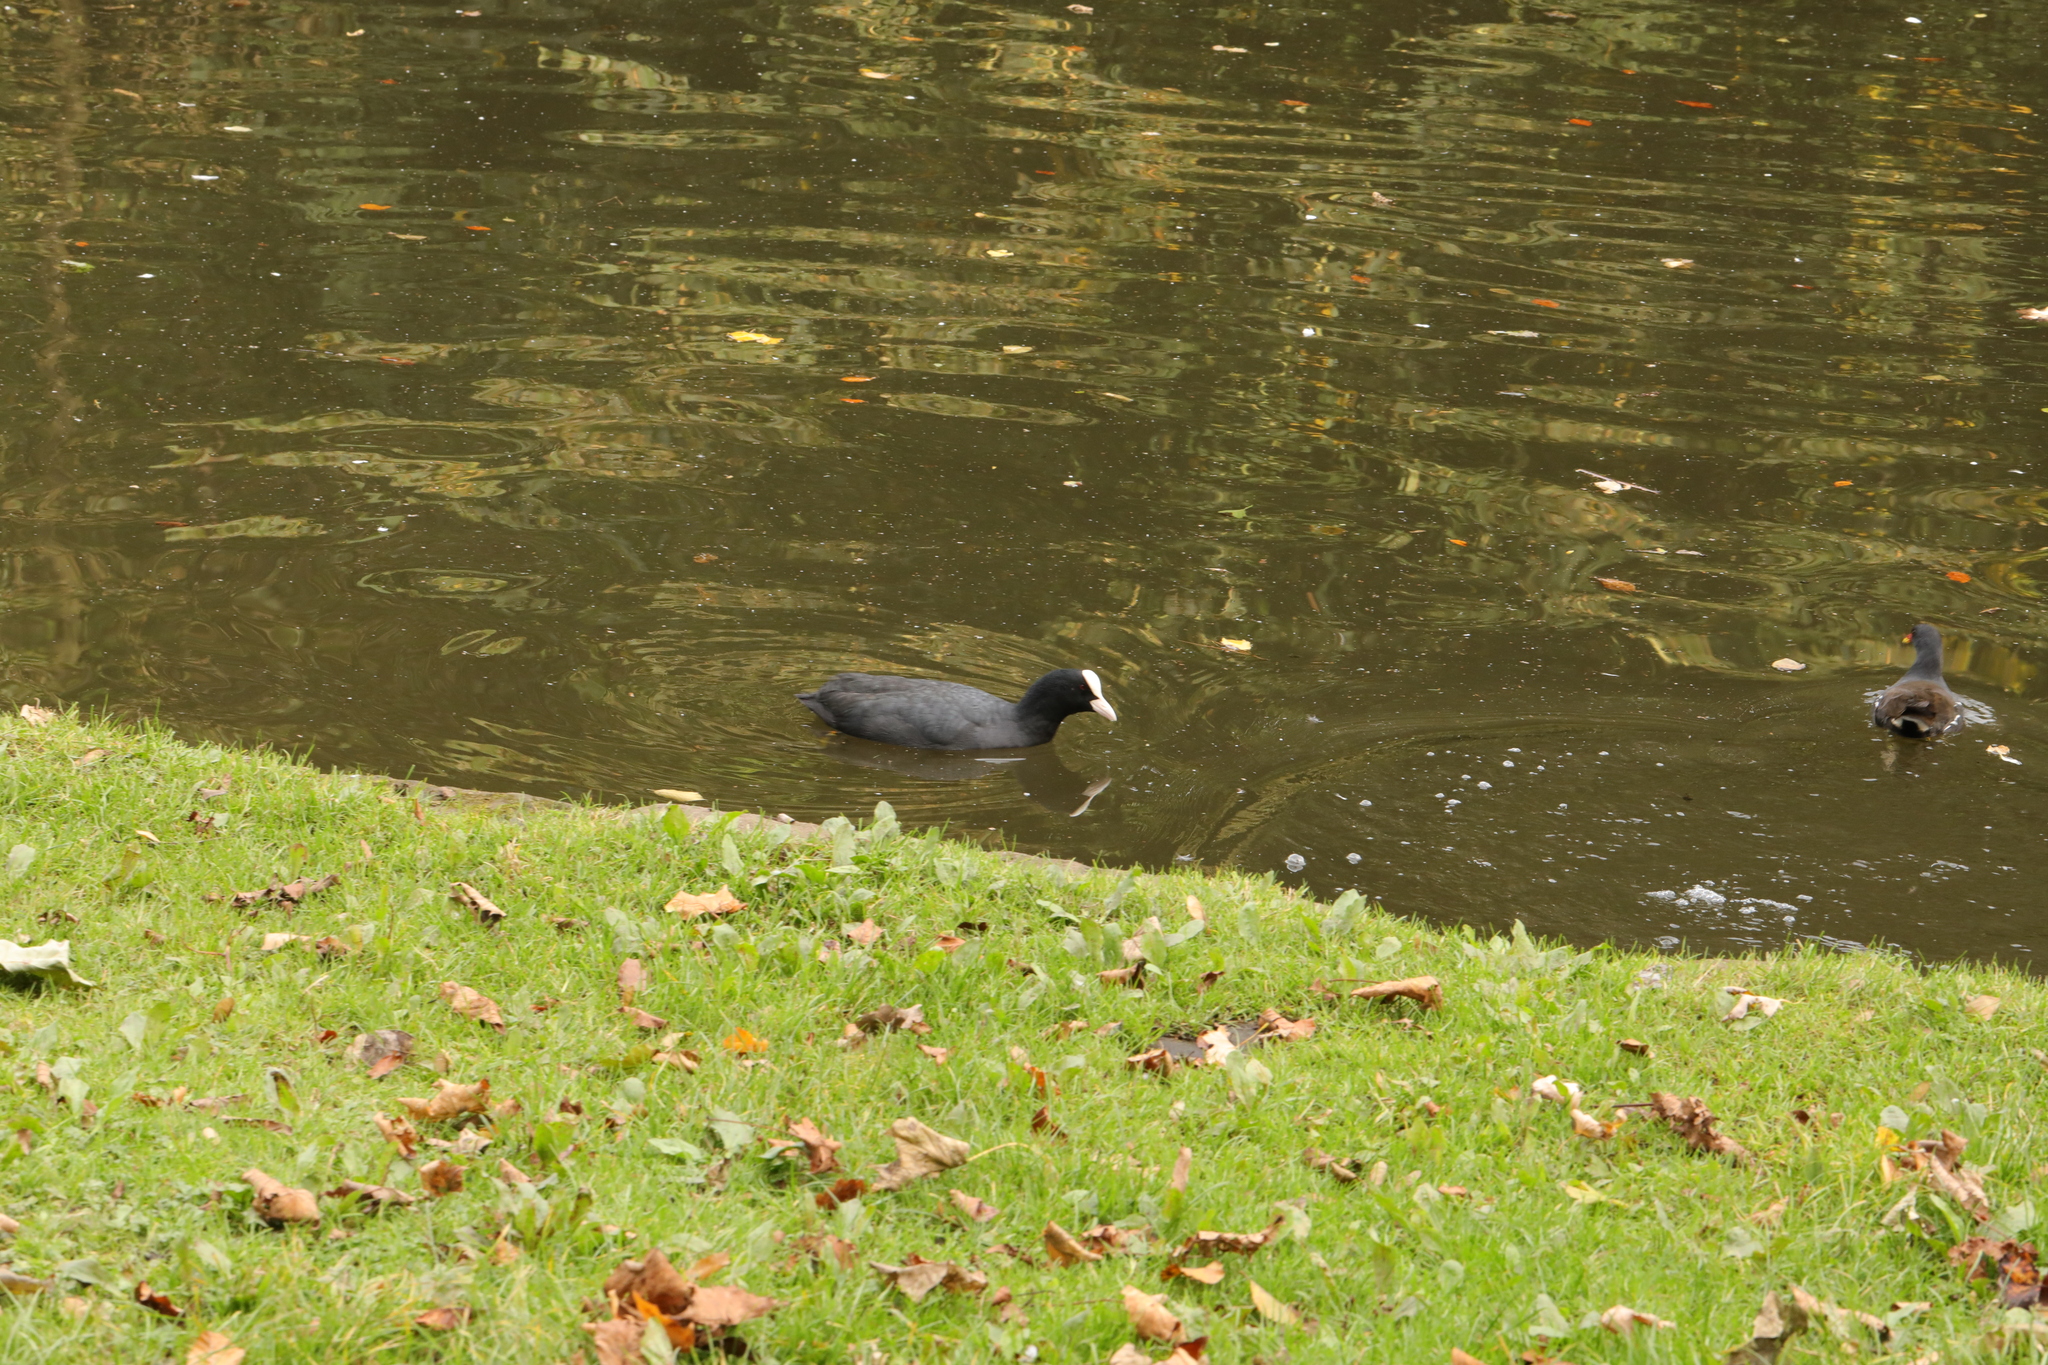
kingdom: Animalia
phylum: Chordata
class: Aves
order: Gruiformes
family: Rallidae
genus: Fulica
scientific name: Fulica atra
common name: Eurasian coot
